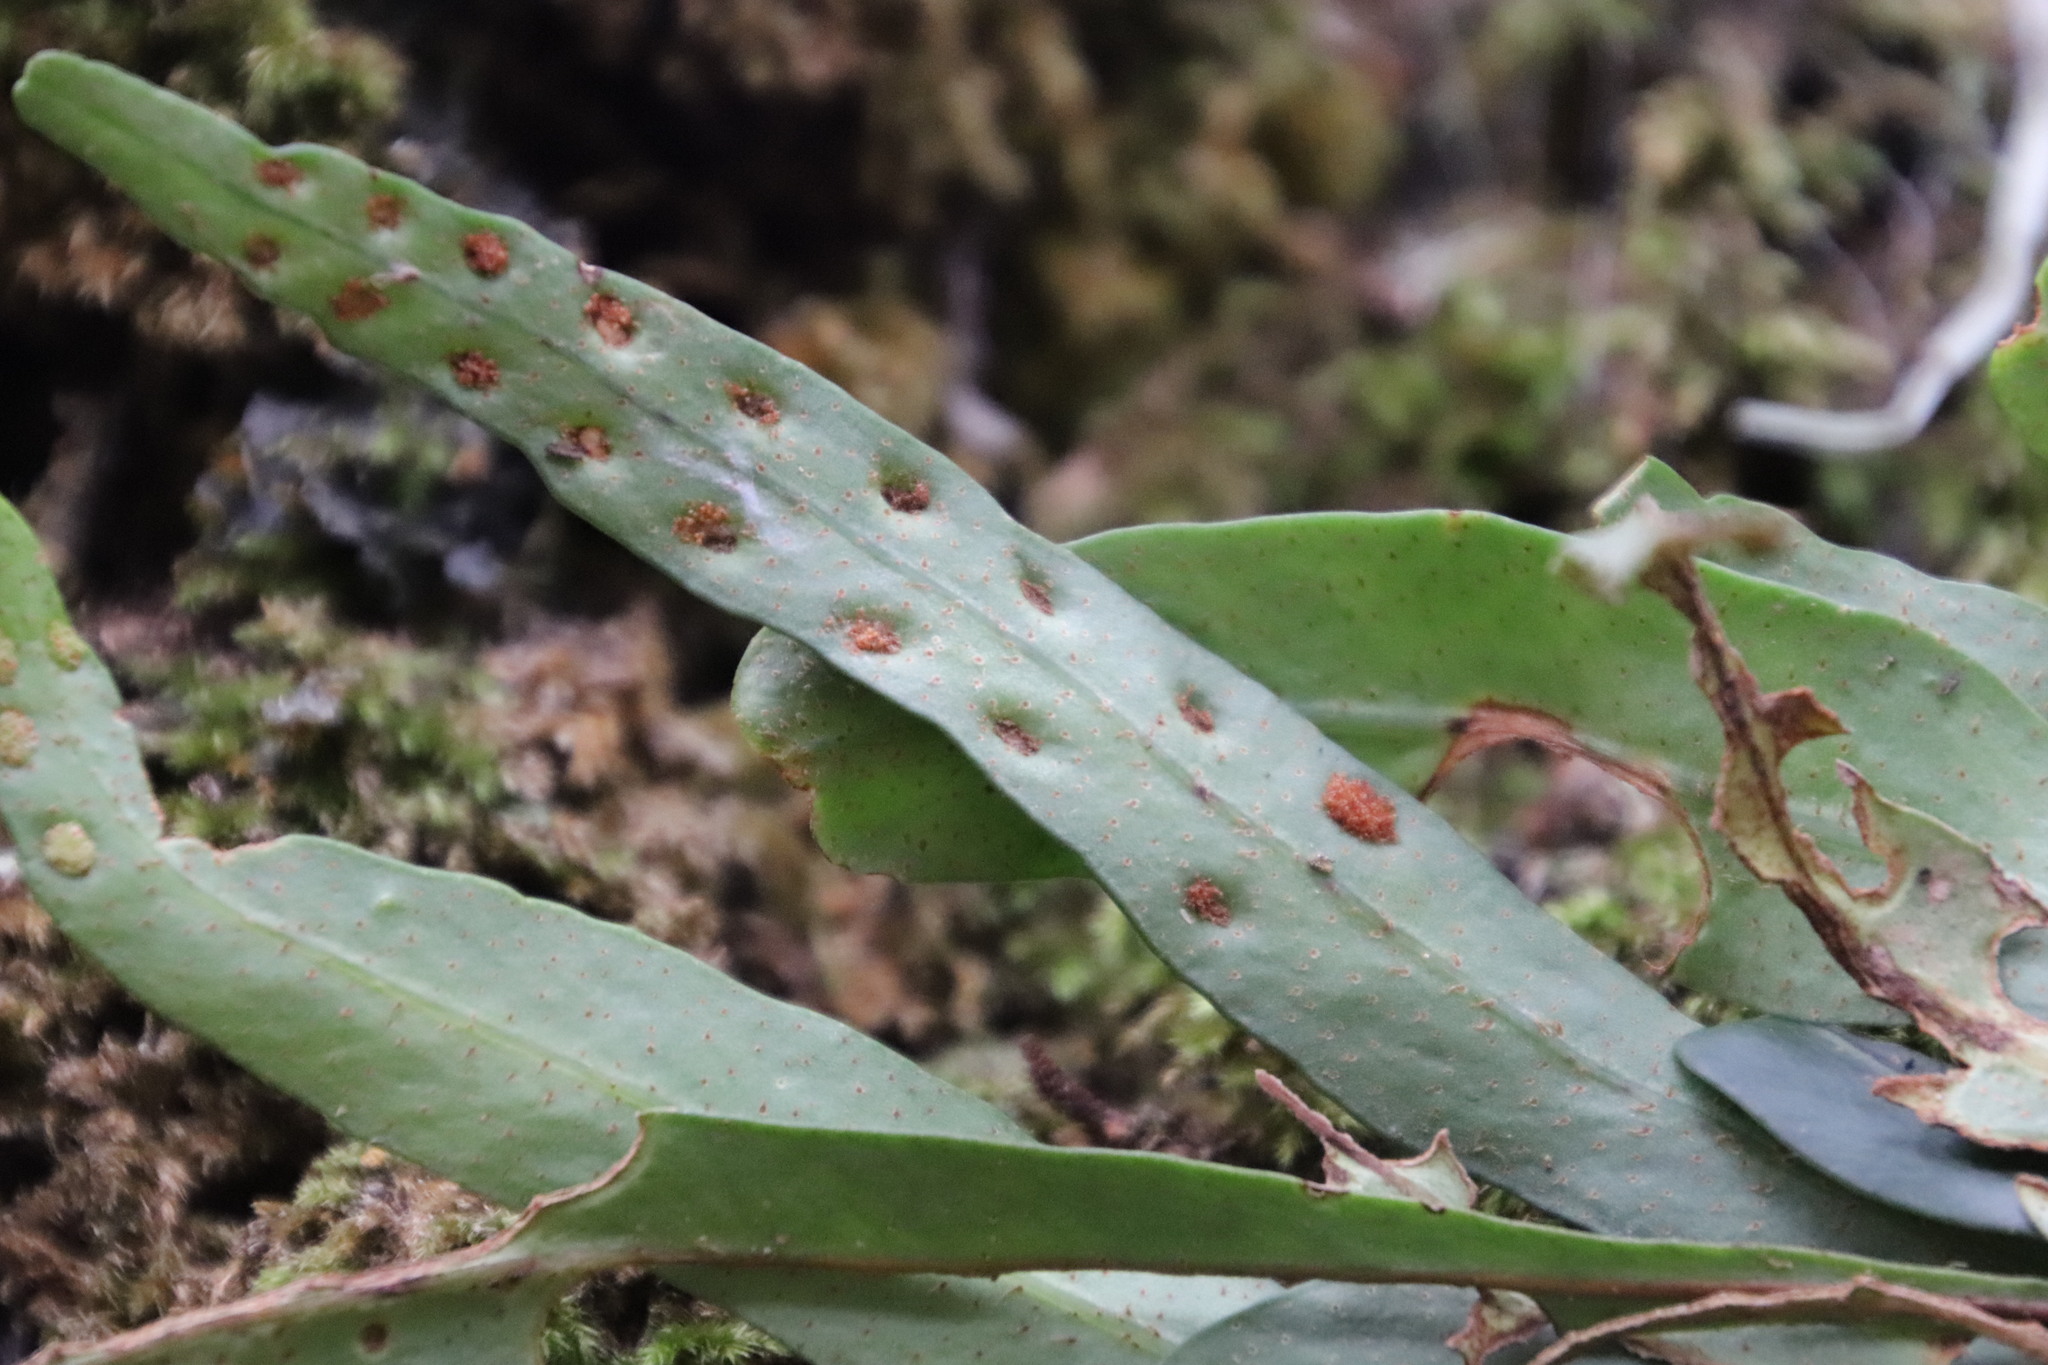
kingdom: Plantae
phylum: Tracheophyta
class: Polypodiopsida
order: Polypodiales
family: Polypodiaceae
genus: Pleopeltis
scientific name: Pleopeltis macrocarpa
